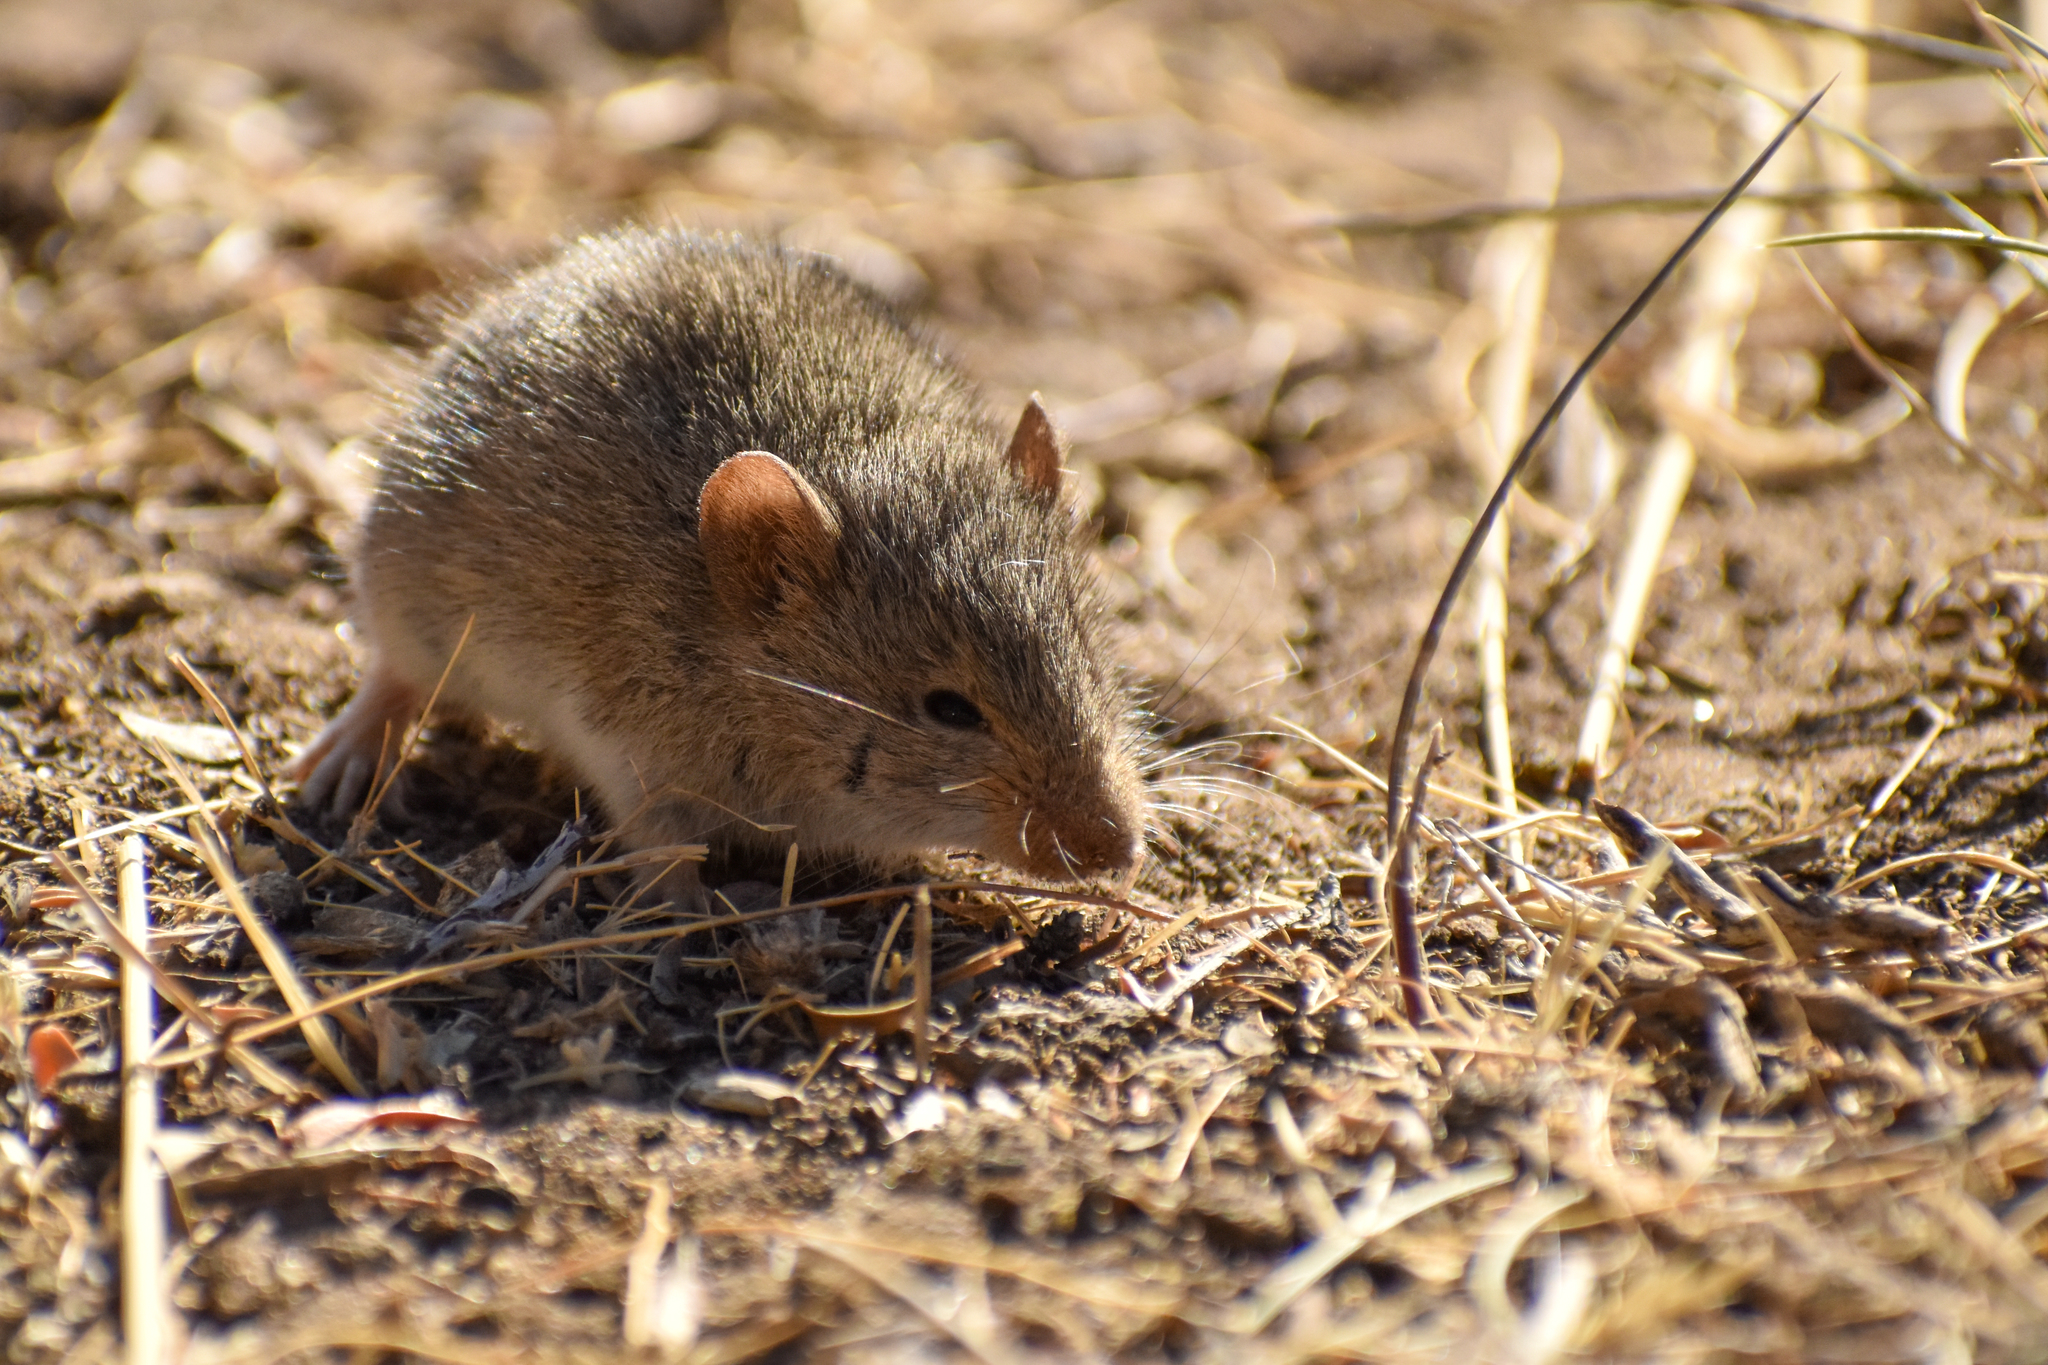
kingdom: Animalia
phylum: Chordata
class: Mammalia
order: Rodentia
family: Cricetidae
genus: Abrothrix
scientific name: Abrothrix longipilis
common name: Long-haired akodont
